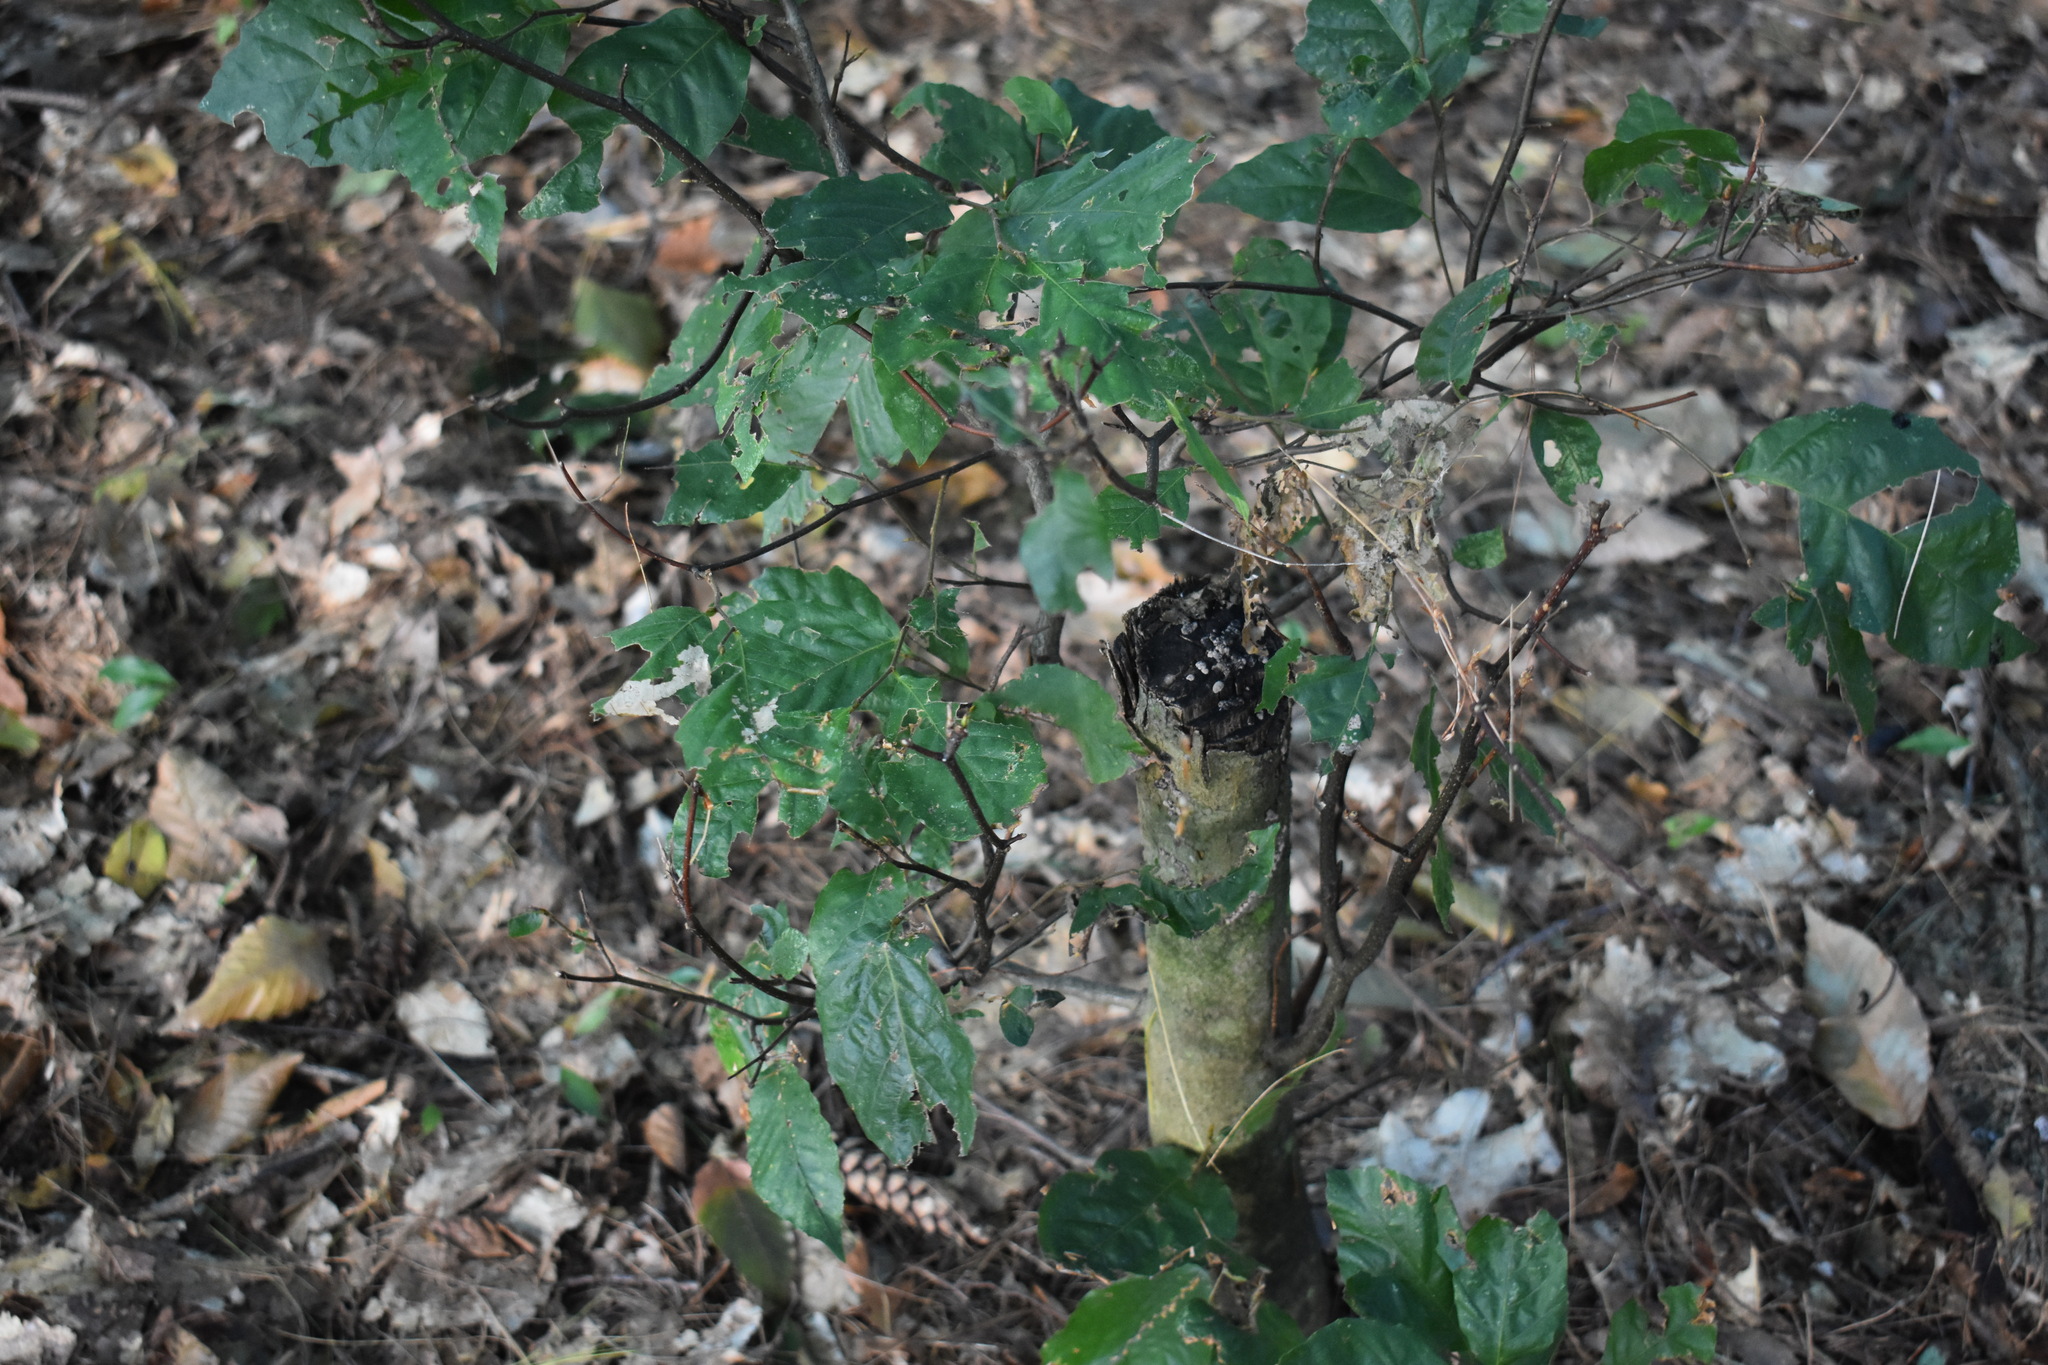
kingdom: Plantae
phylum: Tracheophyta
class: Magnoliopsida
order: Fagales
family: Fagaceae
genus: Fagus
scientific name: Fagus grandifolia
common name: American beech
